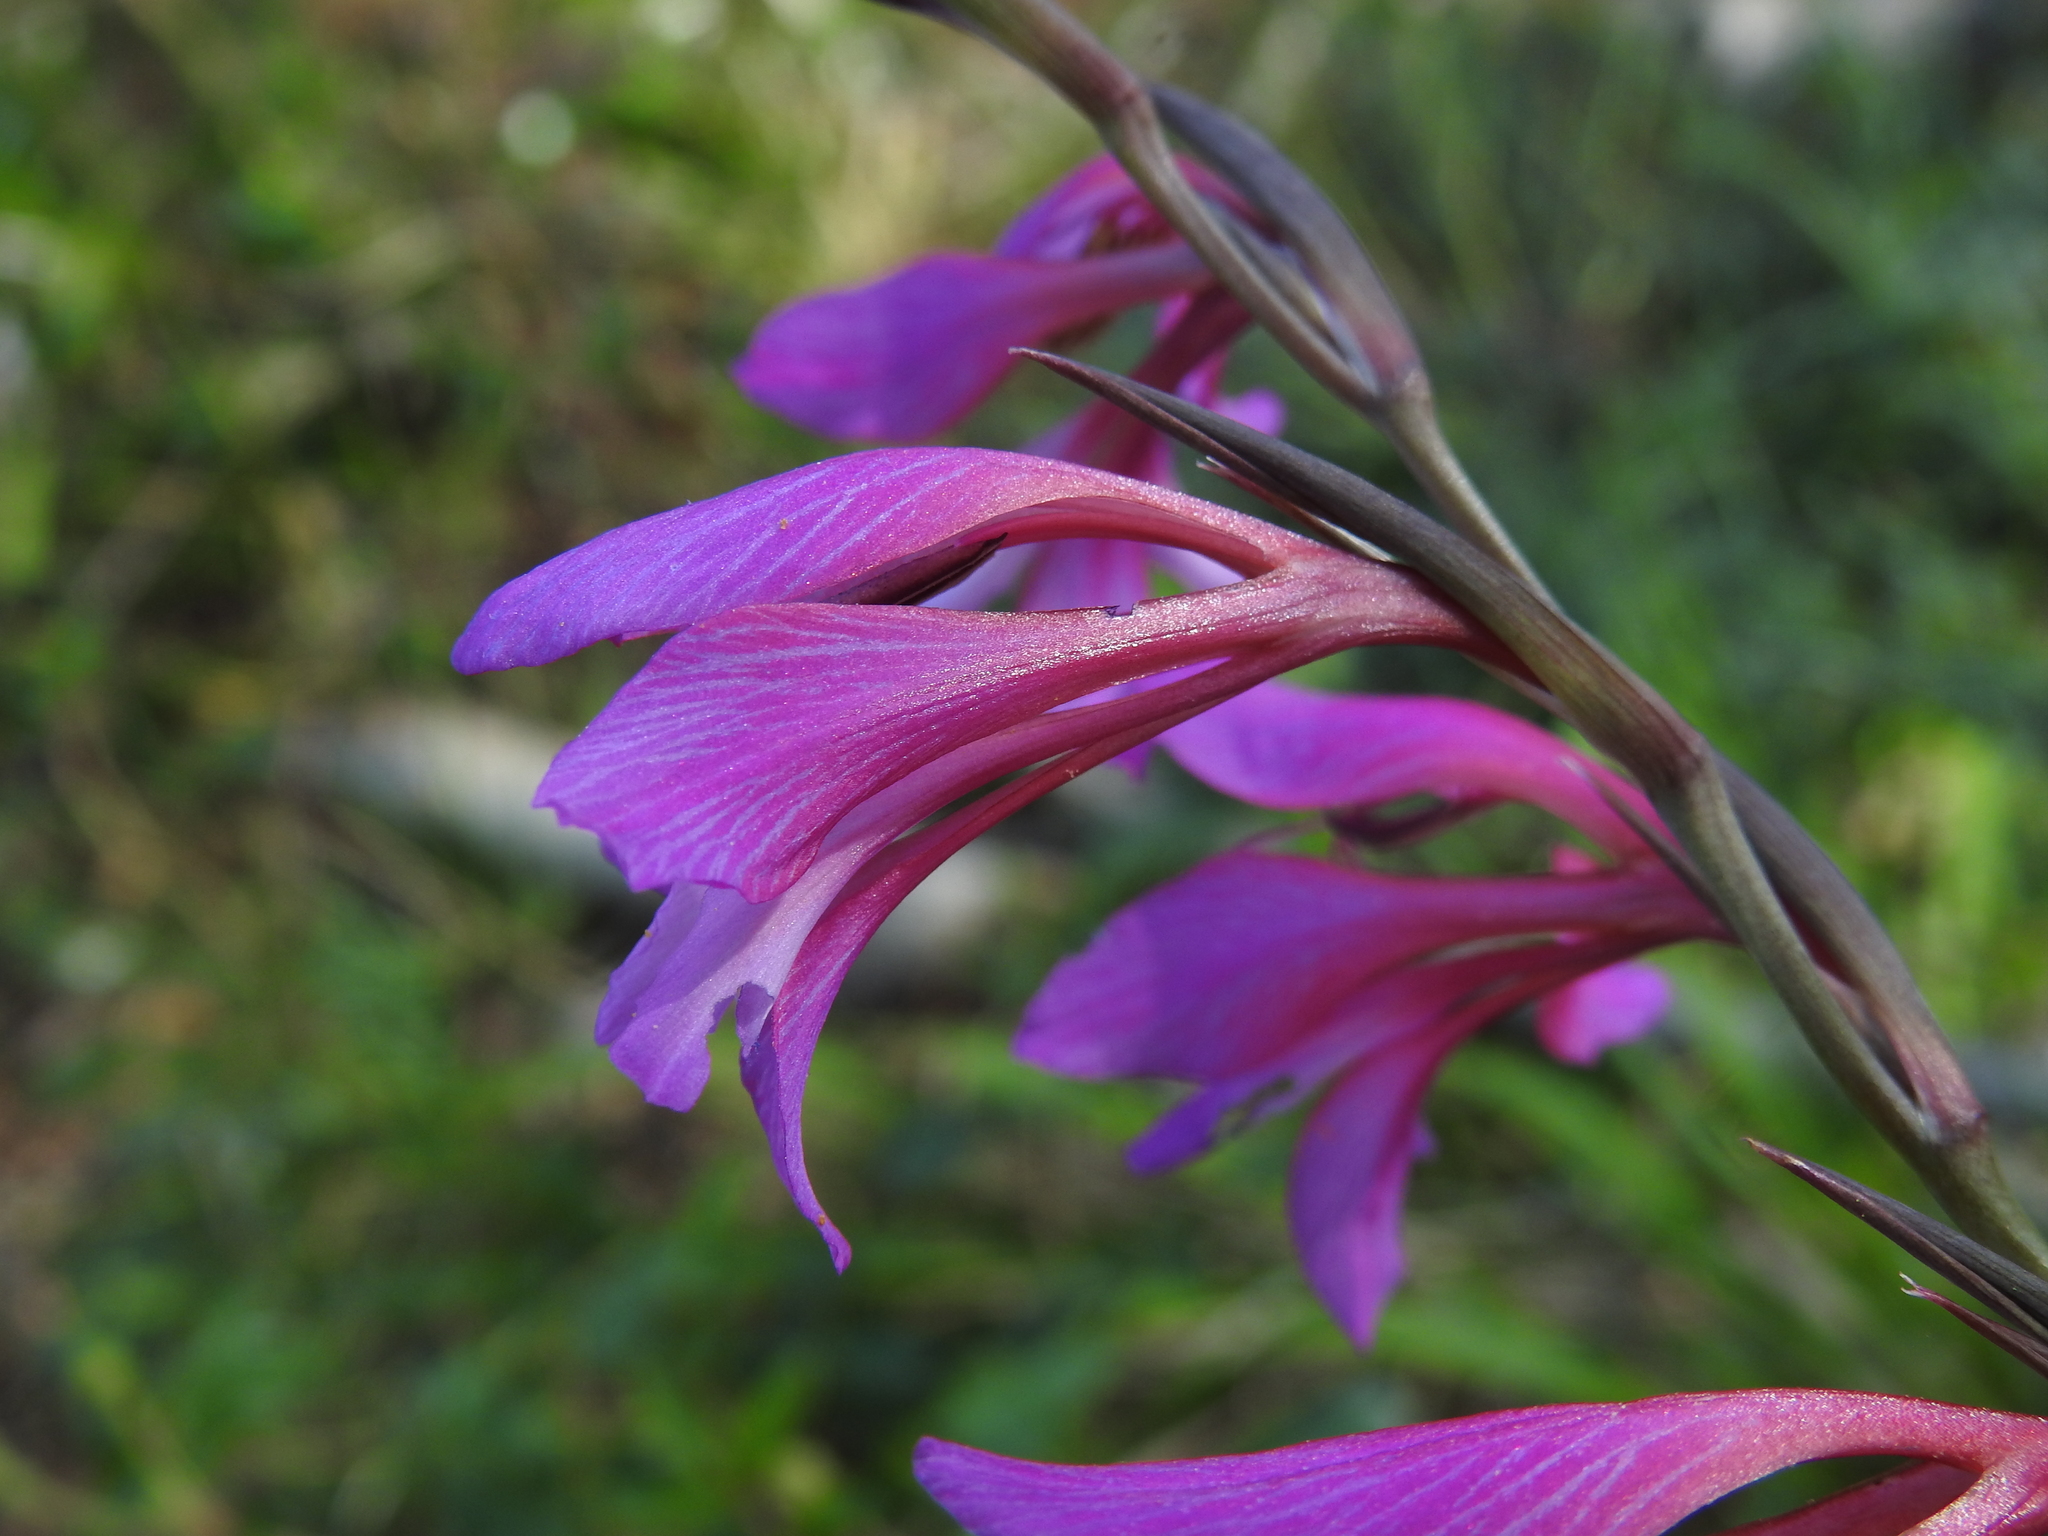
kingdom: Plantae
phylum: Tracheophyta
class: Liliopsida
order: Asparagales
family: Iridaceae
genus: Gladiolus
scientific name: Gladiolus dubius
